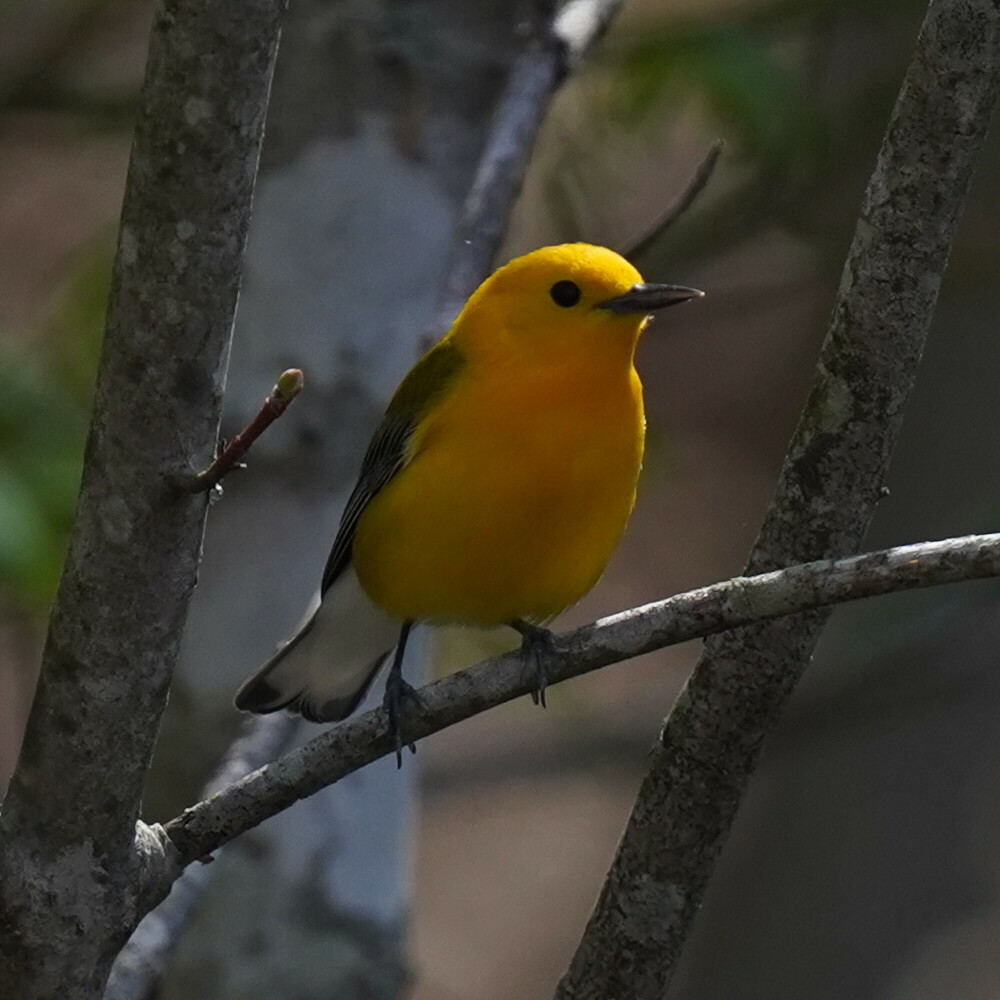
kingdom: Animalia
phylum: Chordata
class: Aves
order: Passeriformes
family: Parulidae
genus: Protonotaria
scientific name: Protonotaria citrea
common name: Prothonotary warbler
